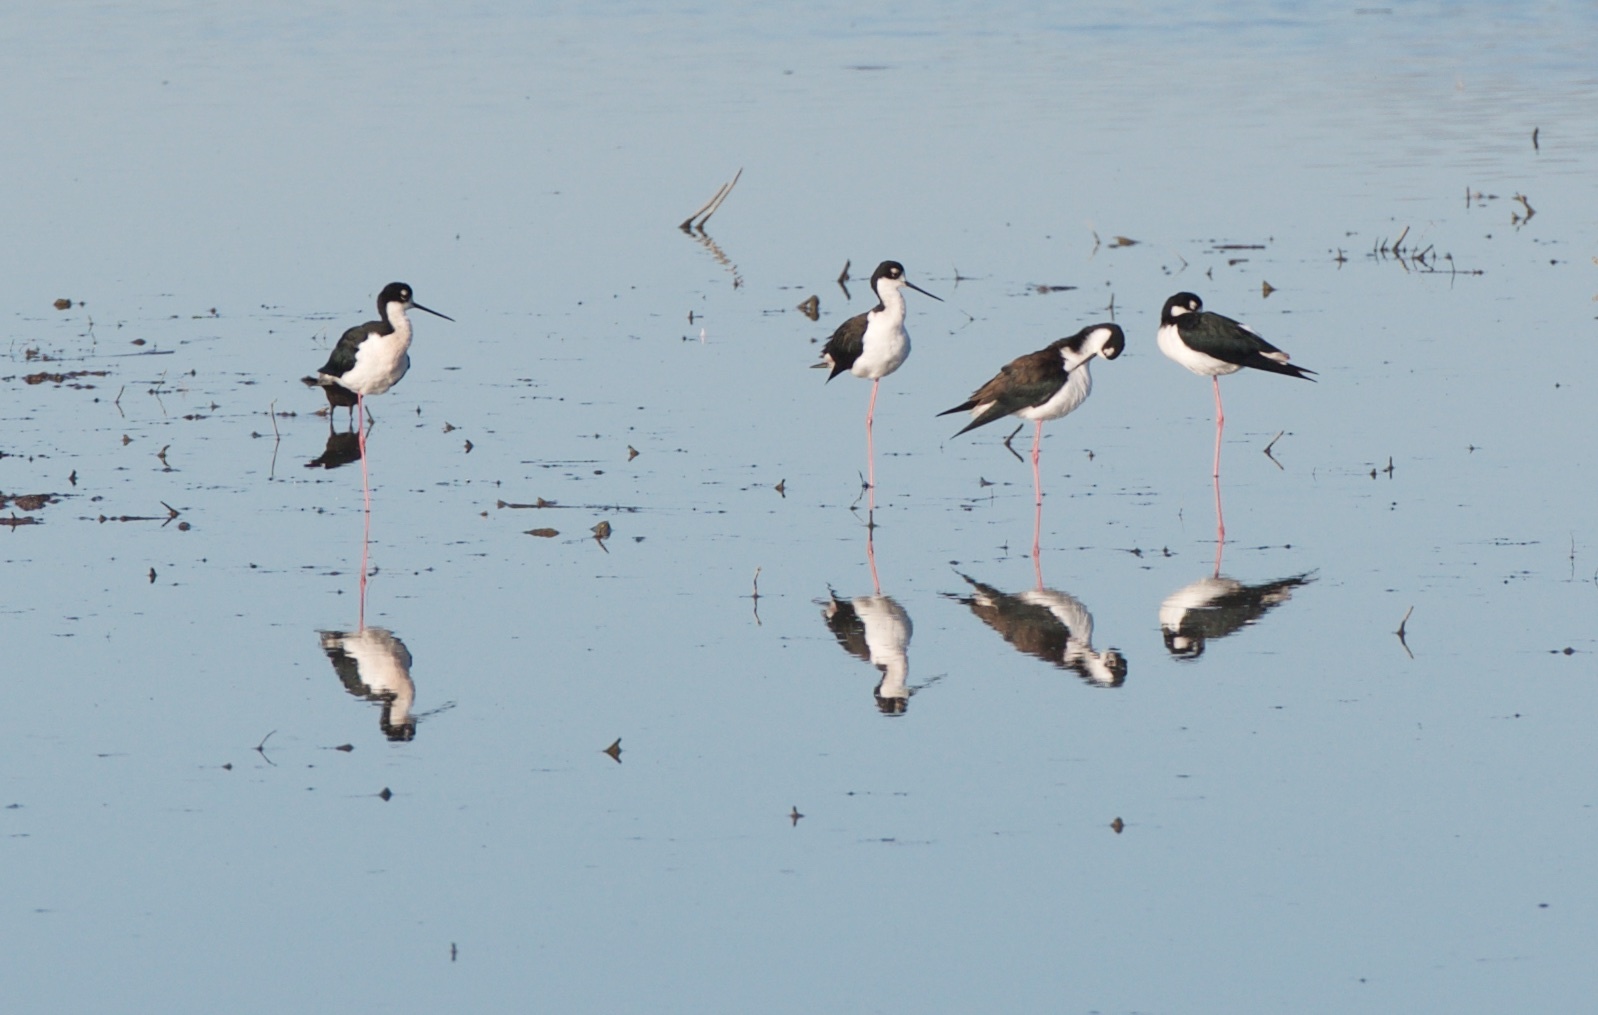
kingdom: Animalia
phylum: Chordata
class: Aves
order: Charadriiformes
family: Recurvirostridae
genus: Himantopus
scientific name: Himantopus mexicanus
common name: Black-necked stilt
